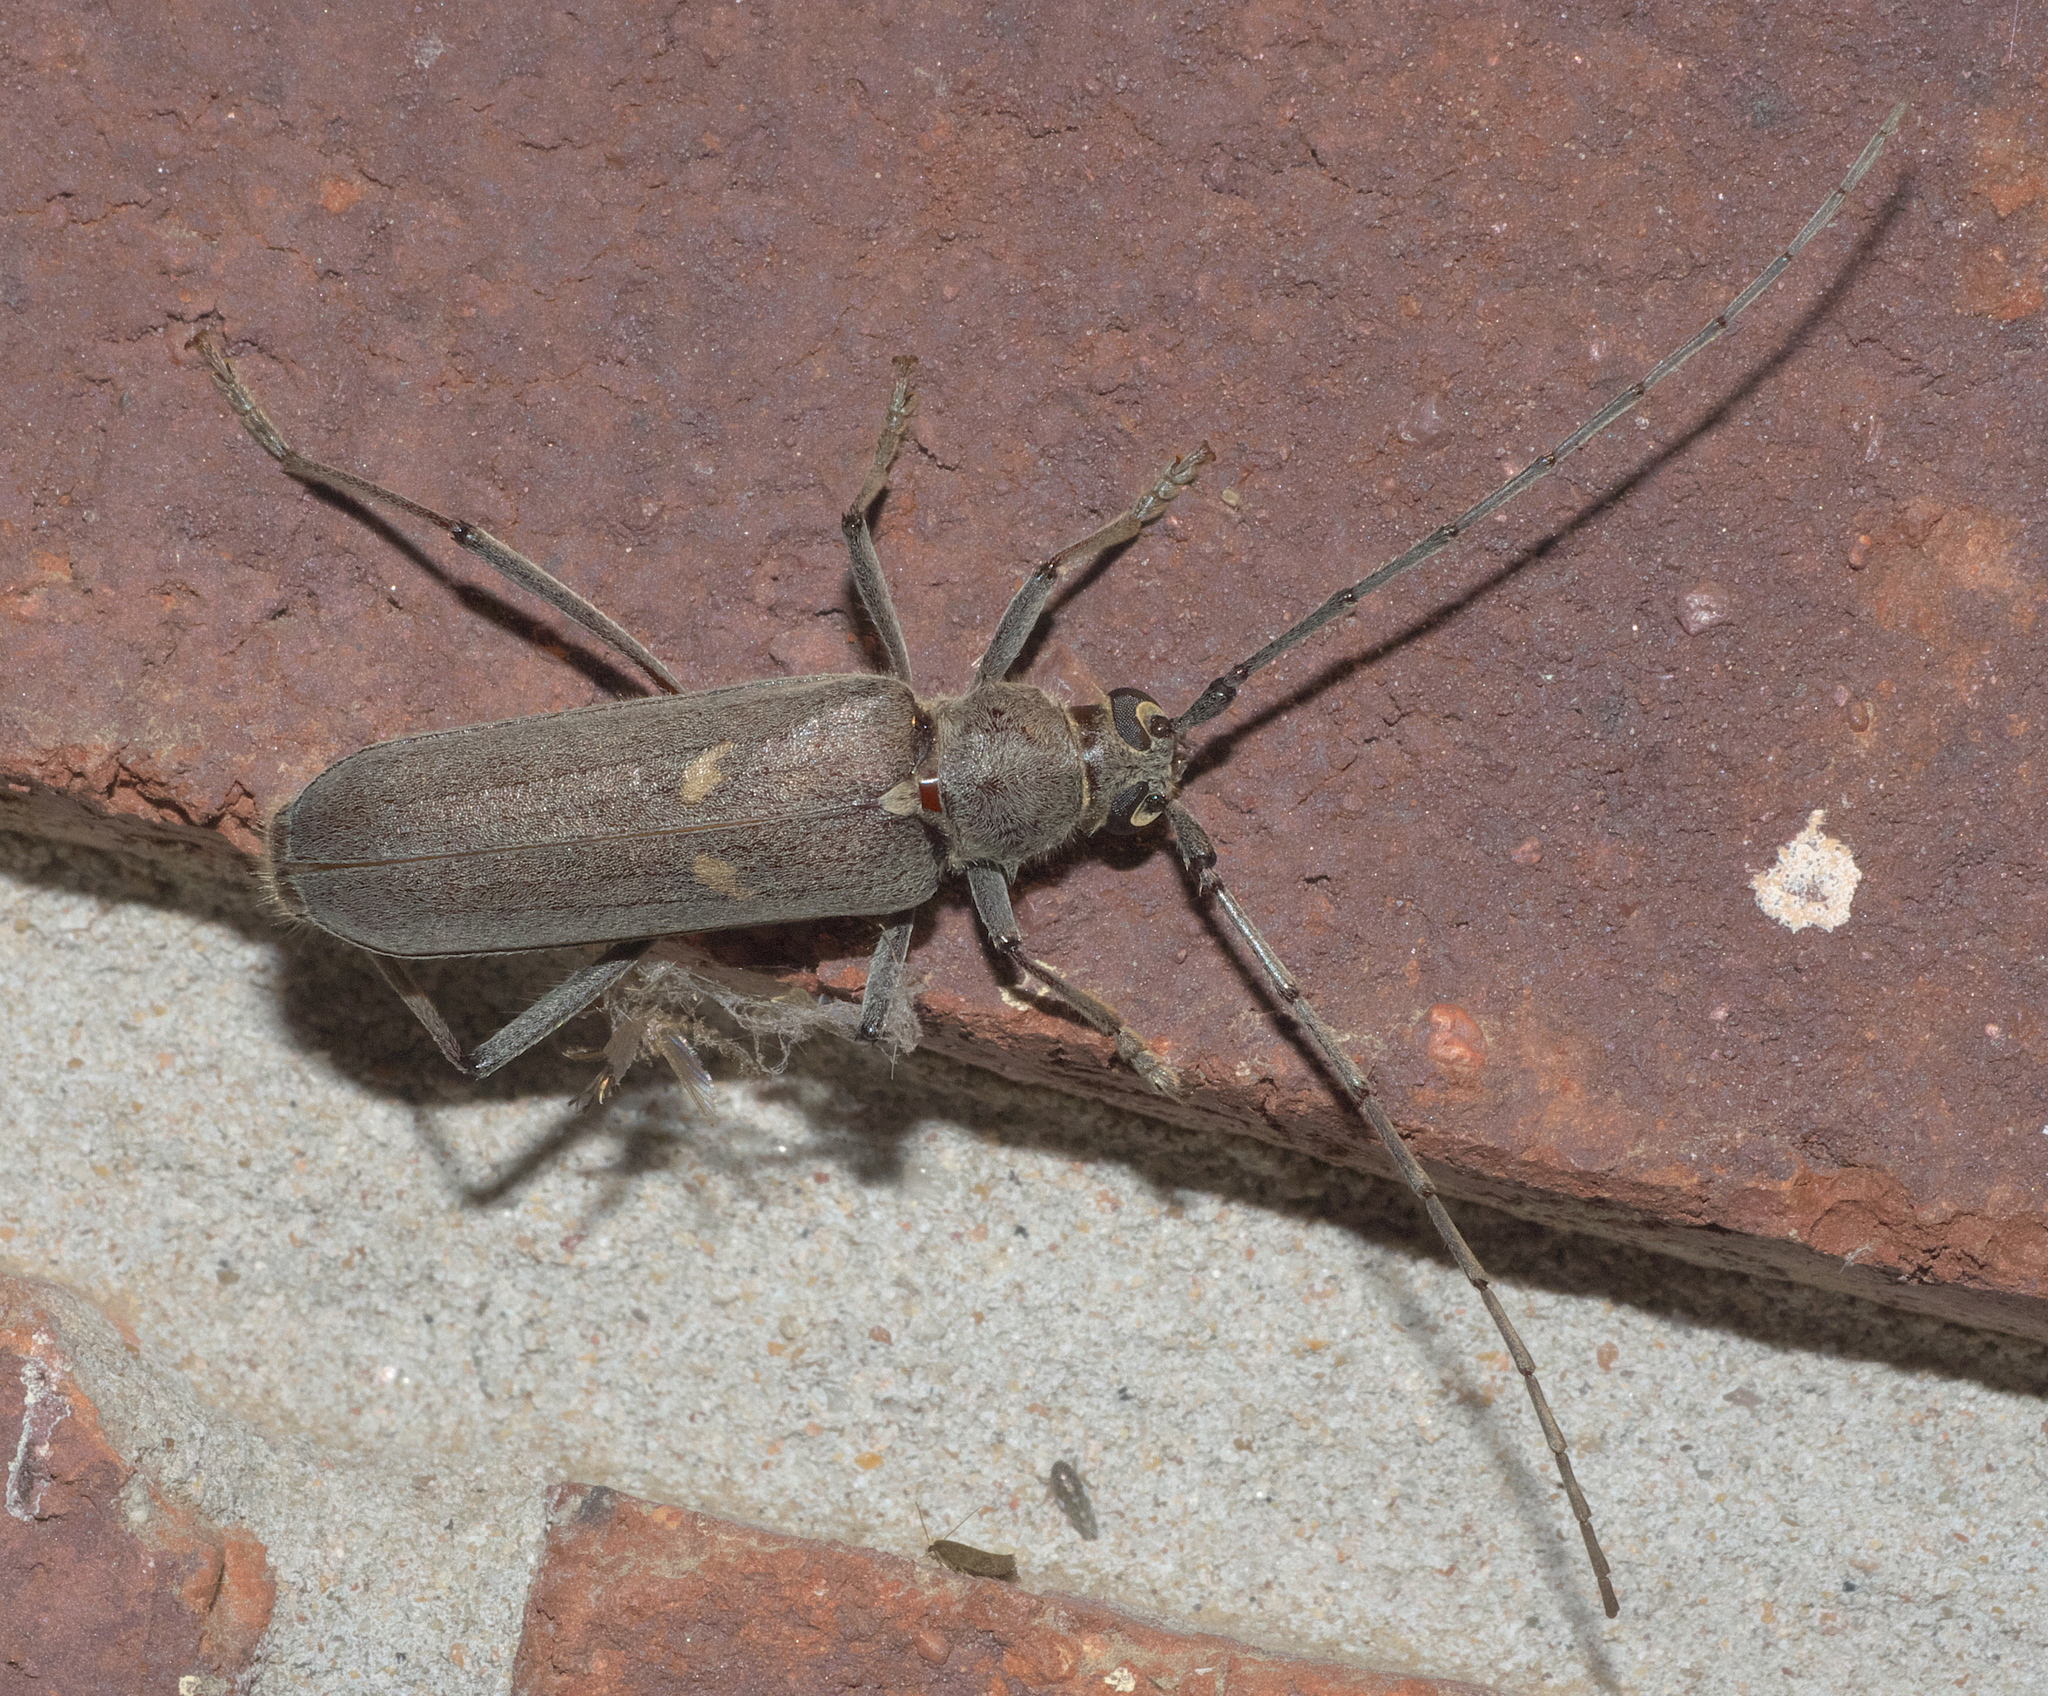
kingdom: Animalia
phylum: Arthropoda
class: Insecta
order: Coleoptera
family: Cerambycidae
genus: Knulliana
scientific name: Knulliana cincta
